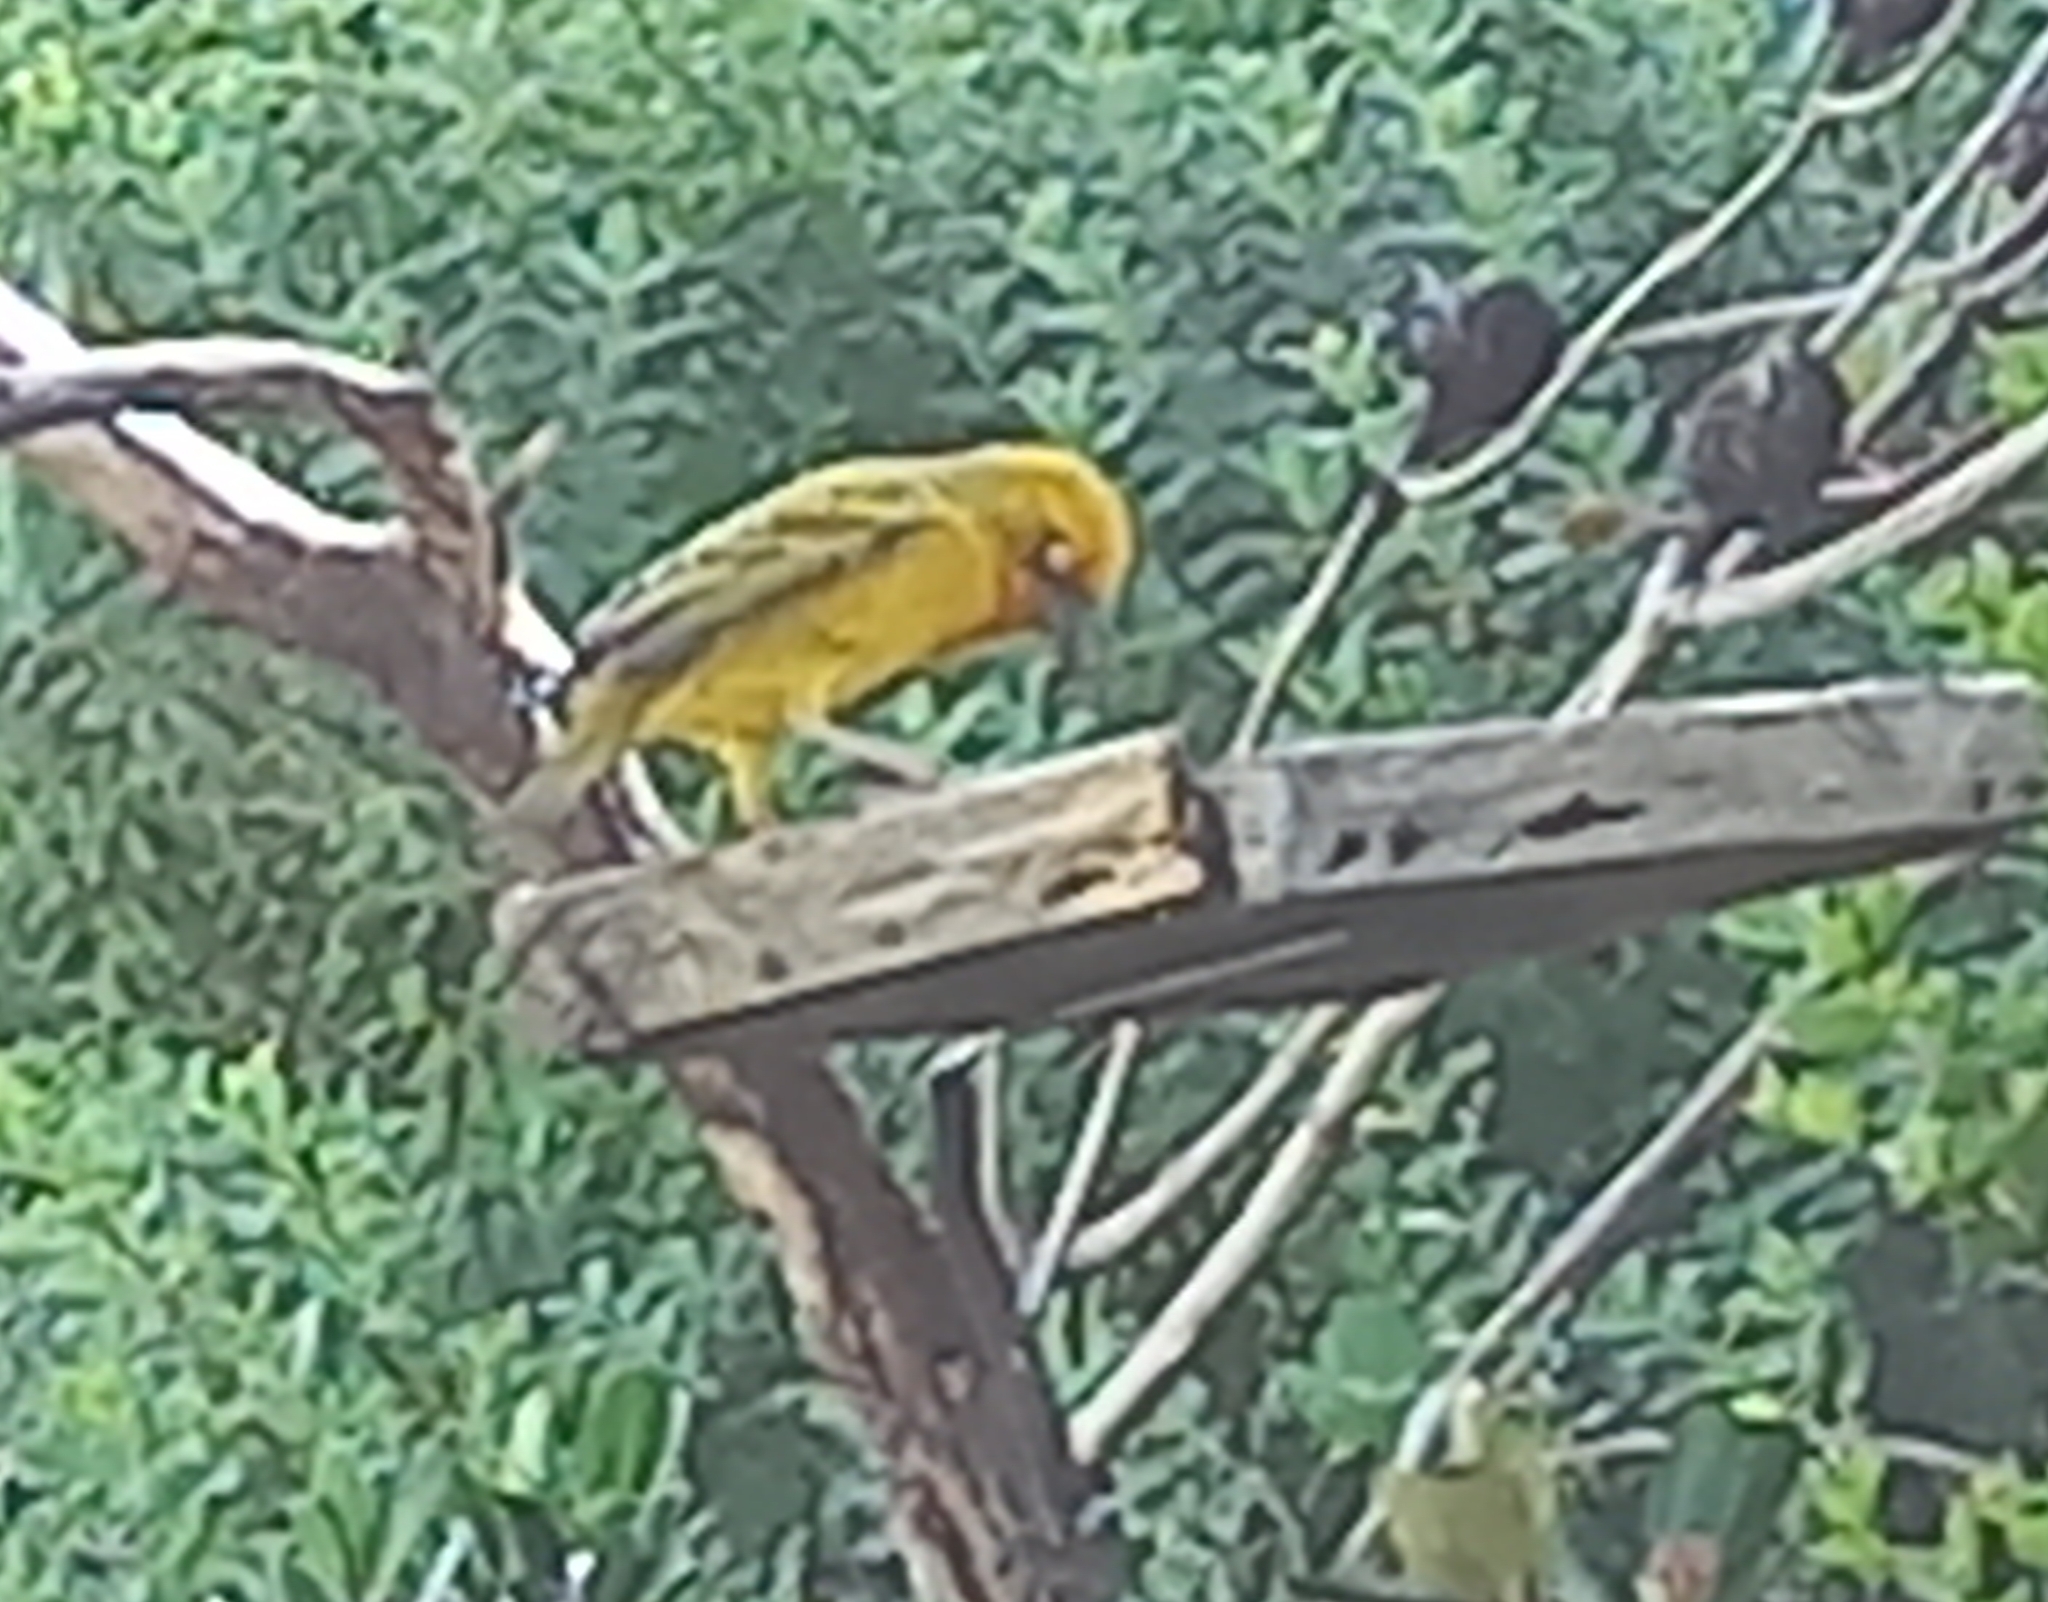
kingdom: Animalia
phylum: Chordata
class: Aves
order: Passeriformes
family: Ploceidae
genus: Ploceus
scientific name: Ploceus capensis
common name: Cape weaver
